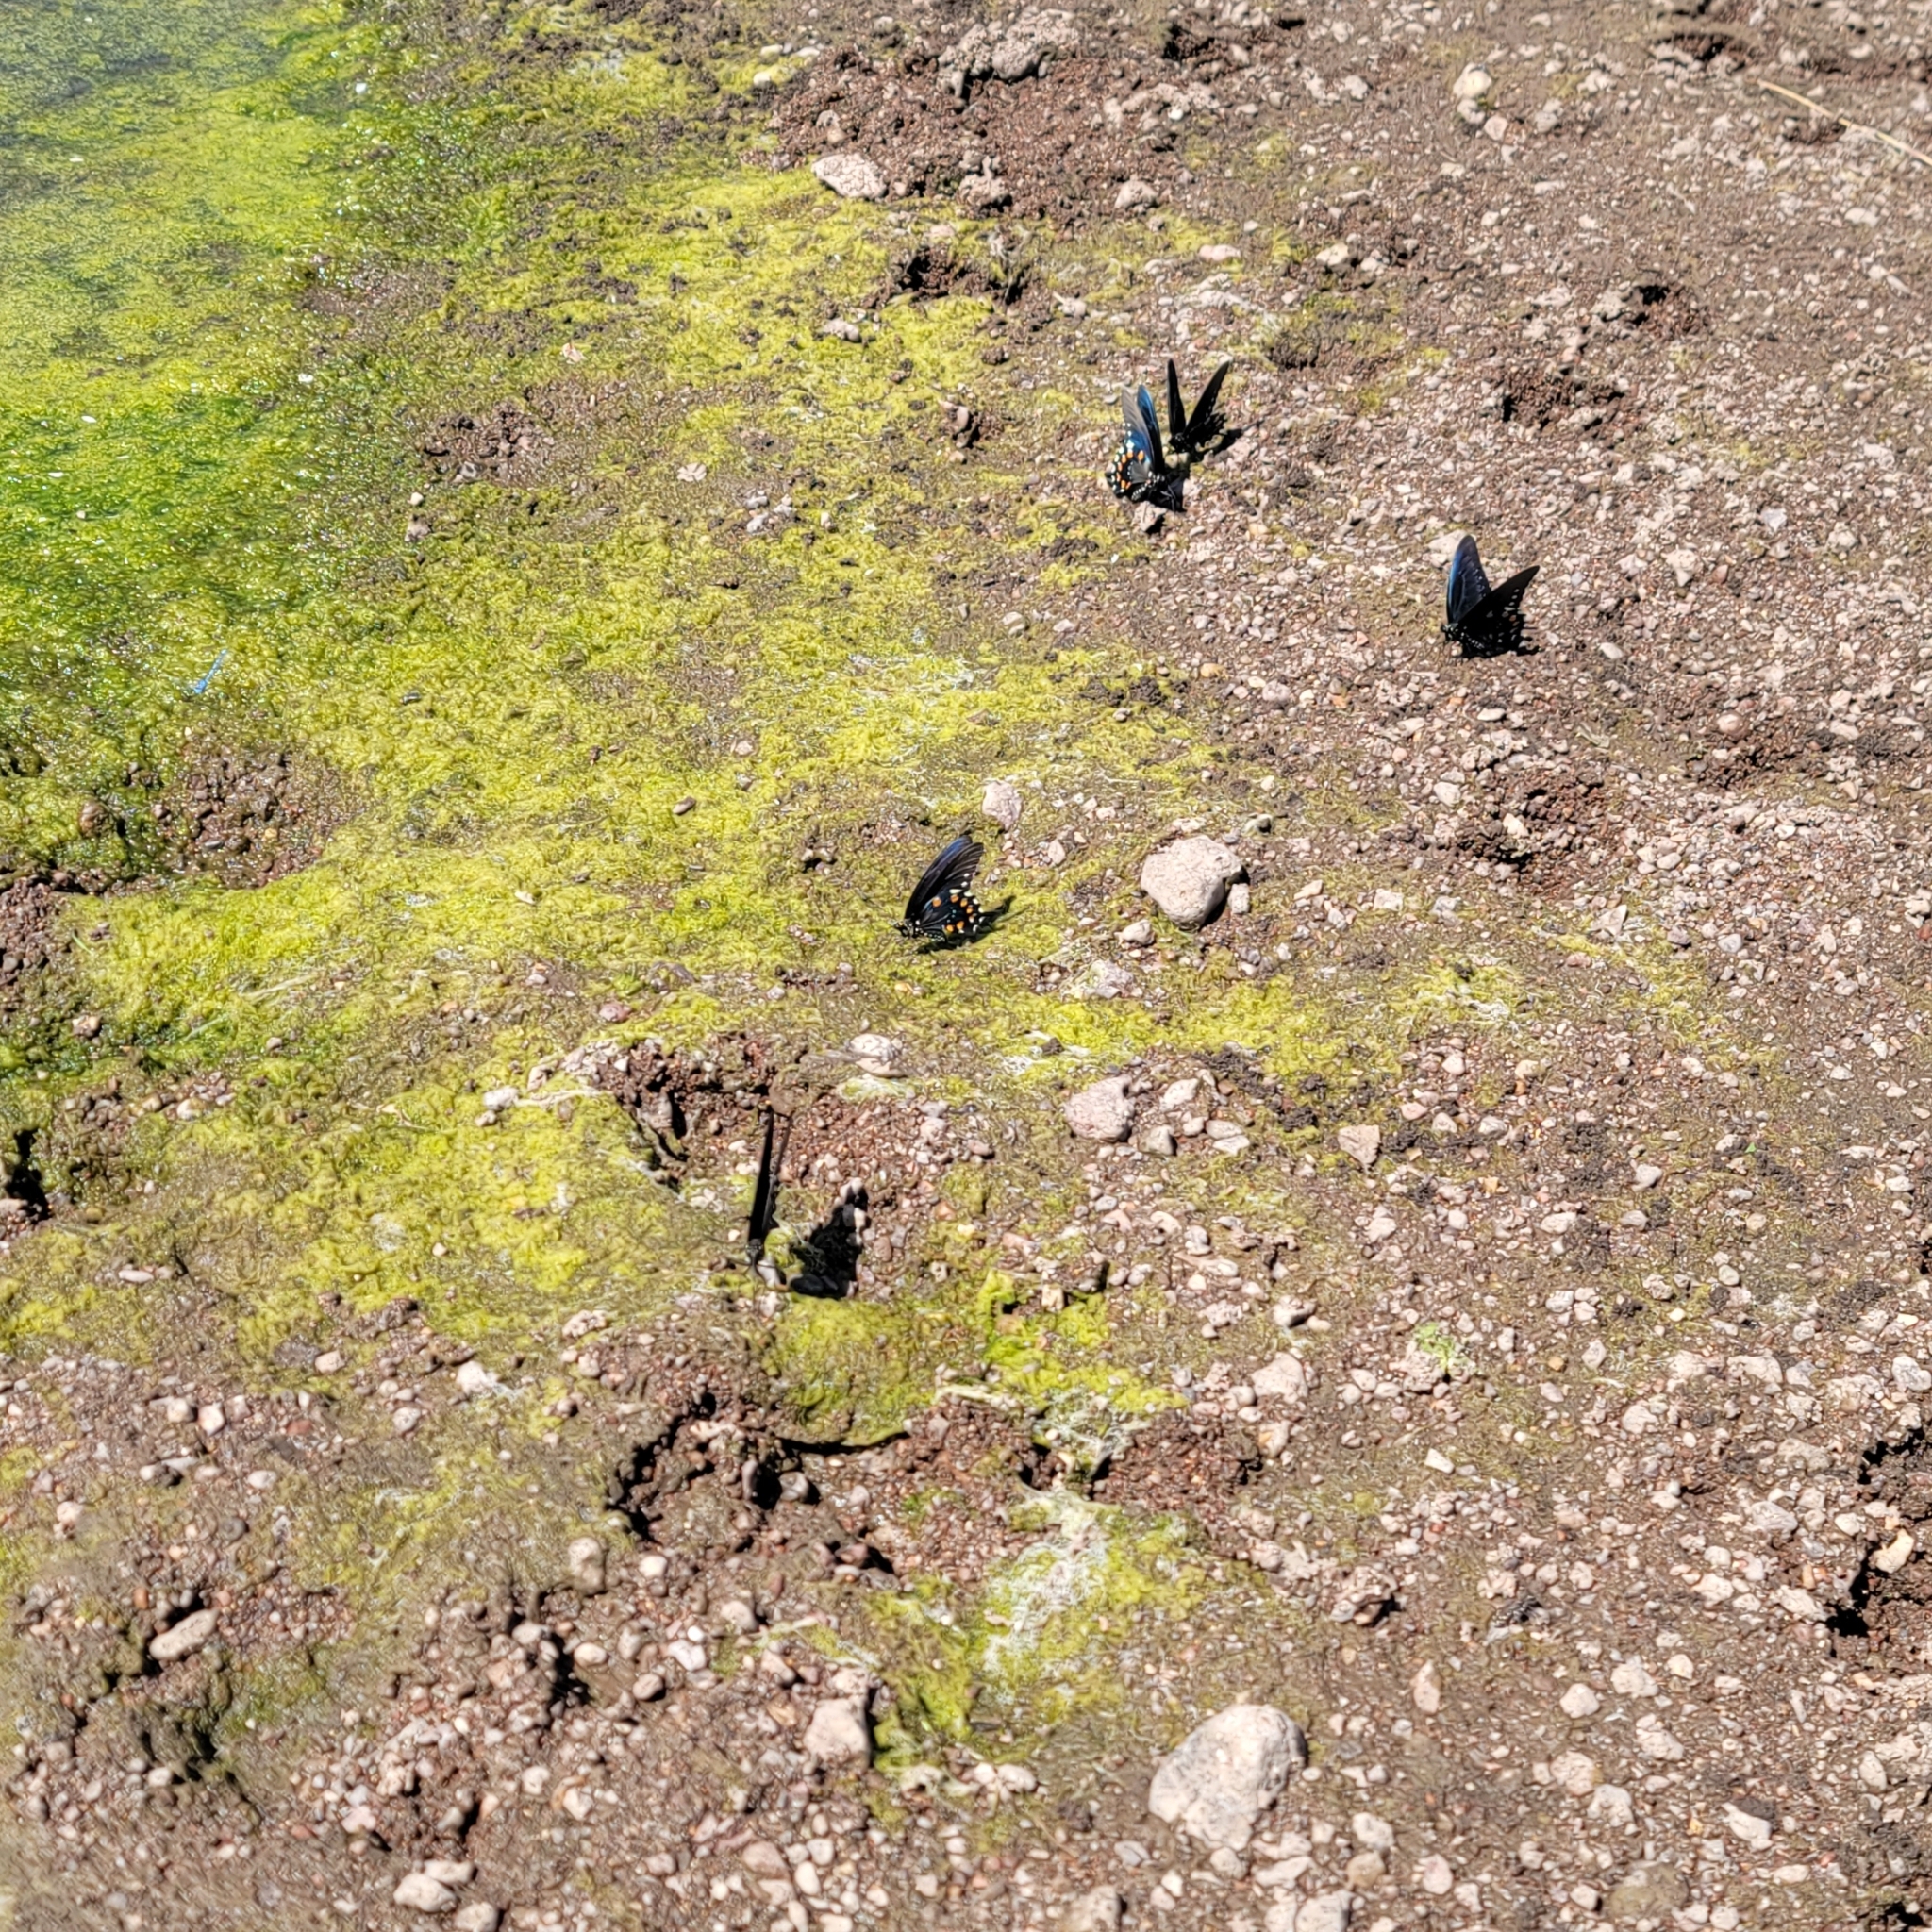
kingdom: Animalia
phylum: Arthropoda
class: Insecta
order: Lepidoptera
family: Papilionidae
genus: Battus
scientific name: Battus philenor
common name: Pipevine swallowtail
